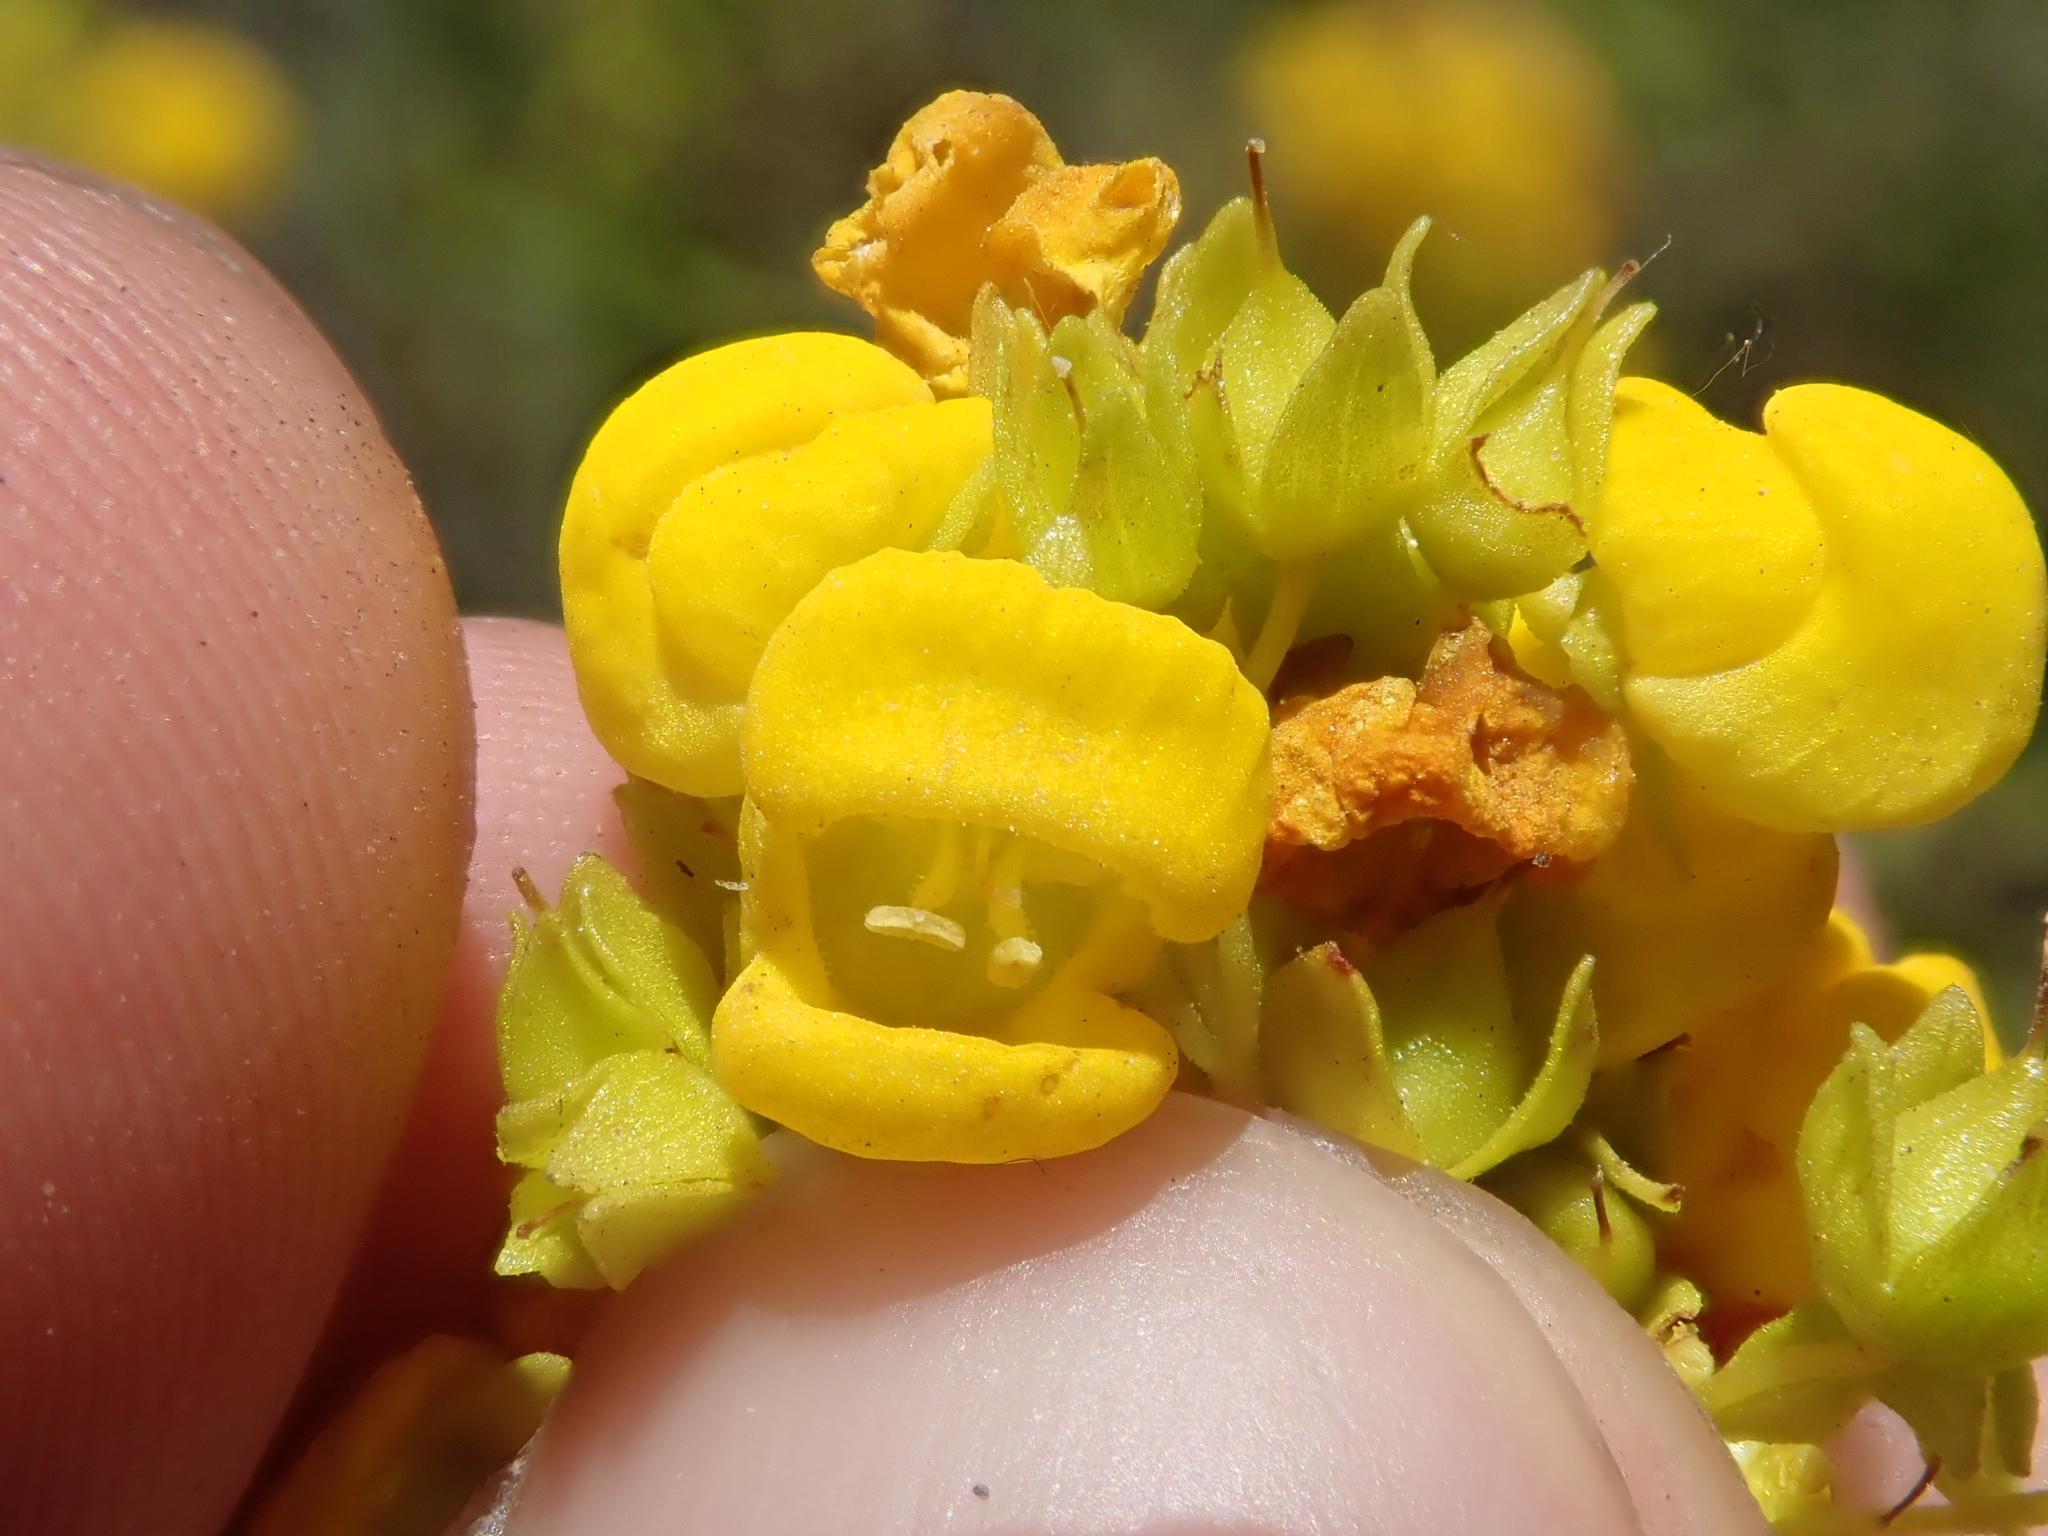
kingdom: Plantae
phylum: Tracheophyta
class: Magnoliopsida
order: Lamiales
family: Calceolariaceae
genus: Calceolaria
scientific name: Calceolaria thyrsiflora
